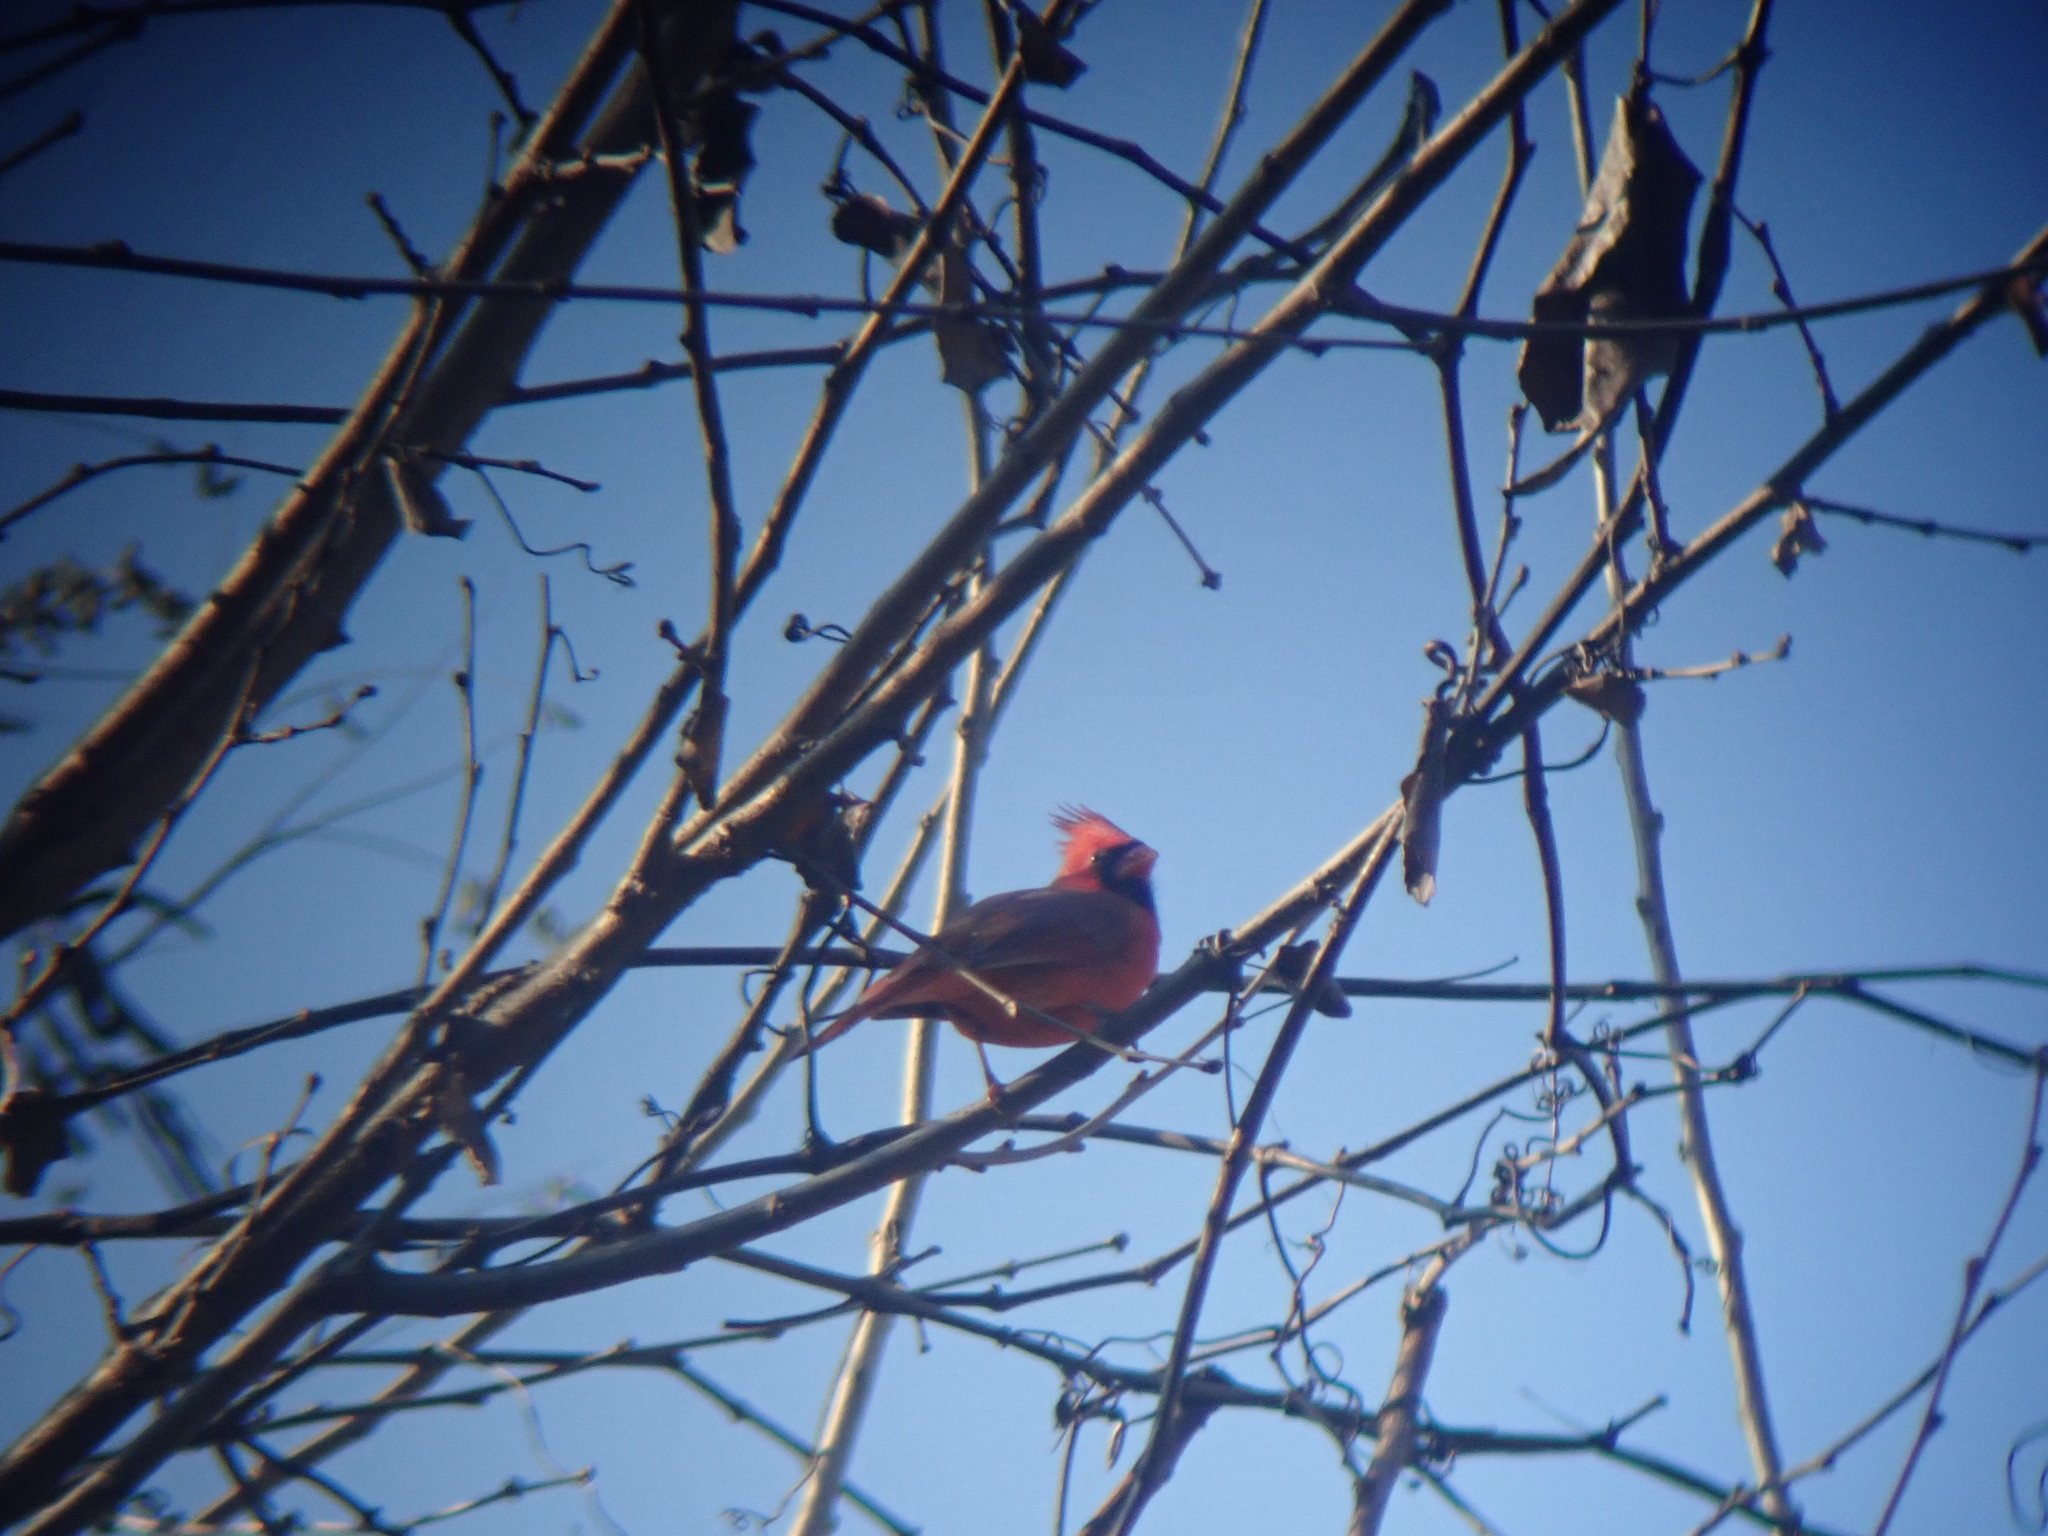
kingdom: Animalia
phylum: Chordata
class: Aves
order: Passeriformes
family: Cardinalidae
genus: Cardinalis
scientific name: Cardinalis cardinalis
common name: Northern cardinal
